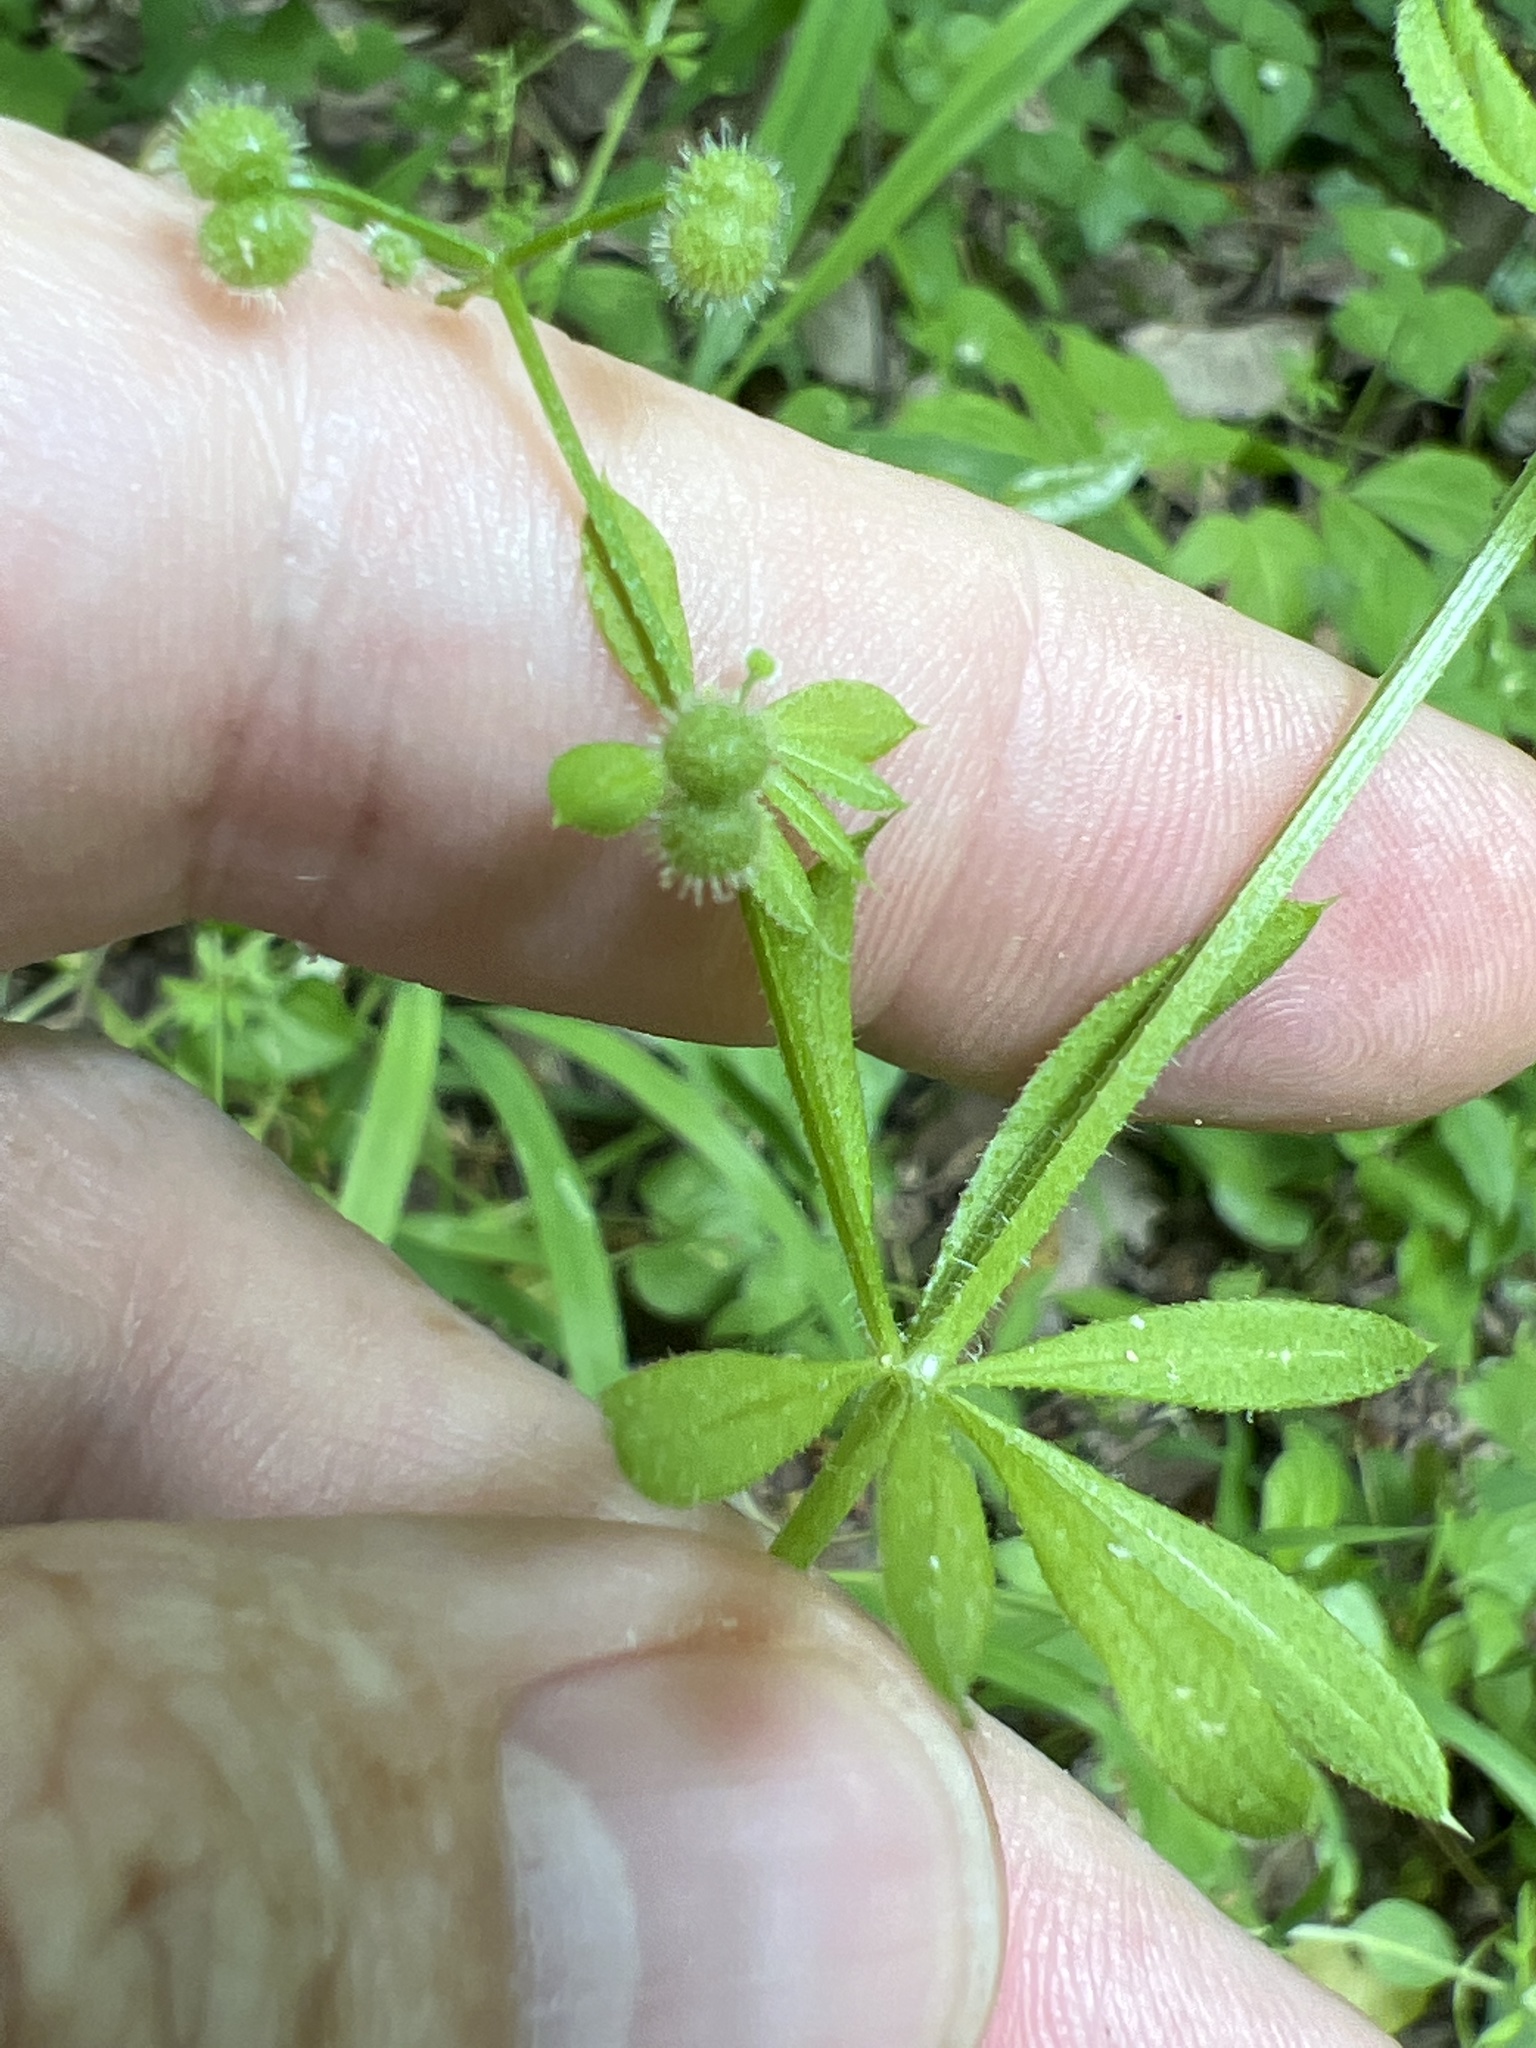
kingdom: Plantae
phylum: Tracheophyta
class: Magnoliopsida
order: Gentianales
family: Rubiaceae
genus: Galium
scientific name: Galium aparine
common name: Cleavers
